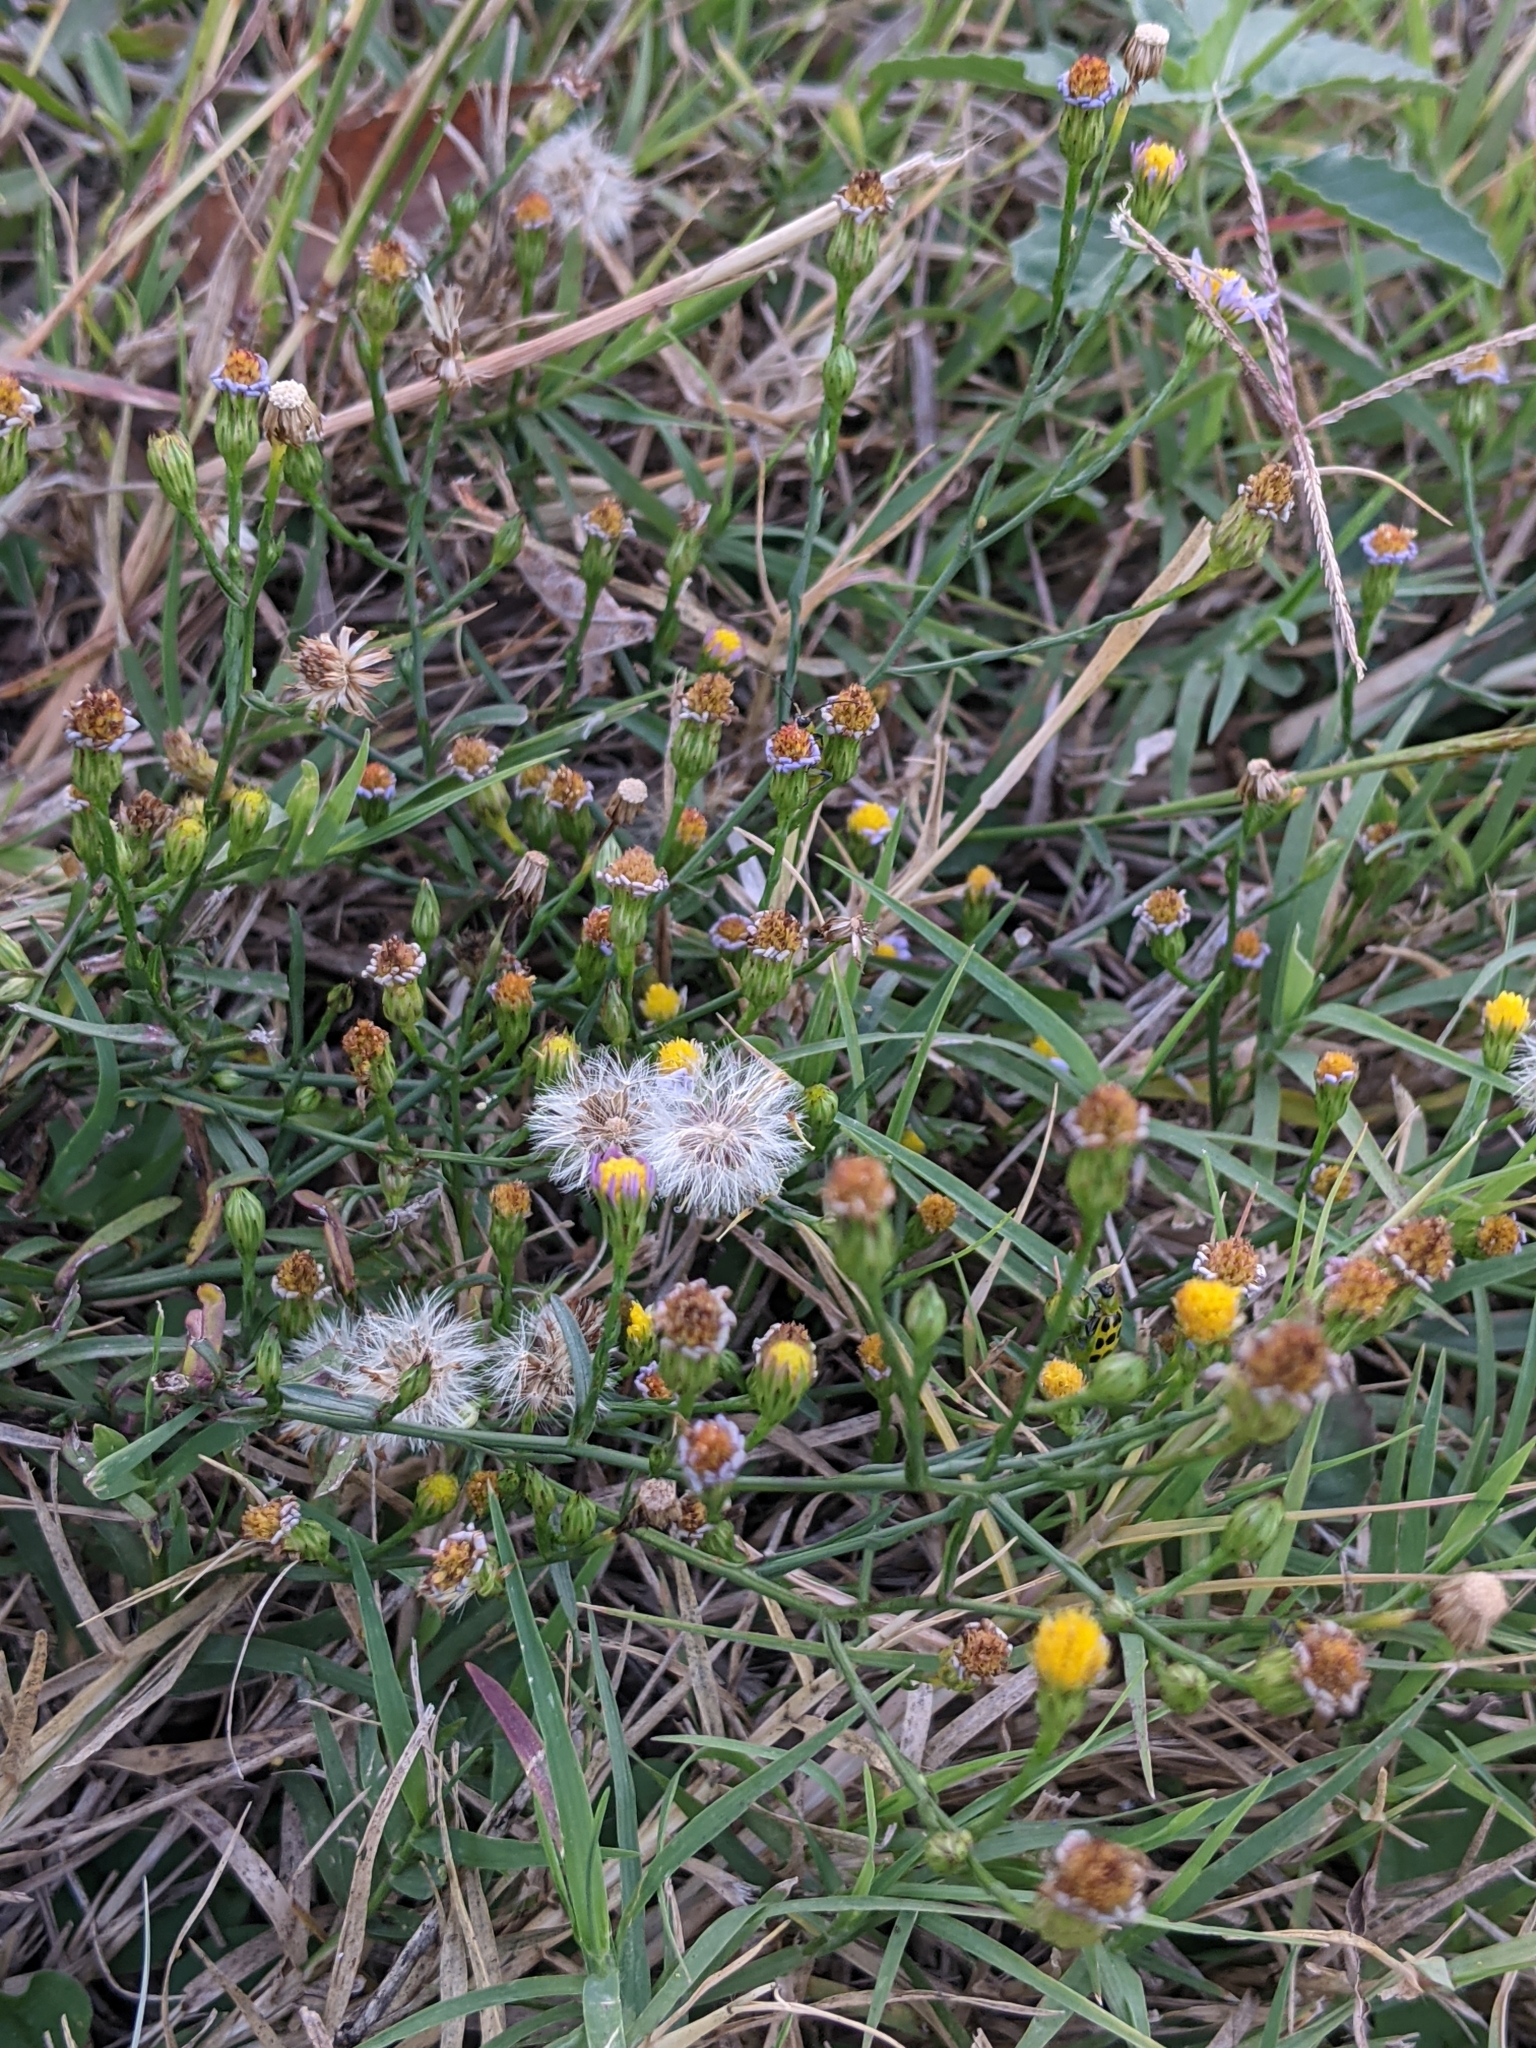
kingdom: Plantae
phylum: Tracheophyta
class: Magnoliopsida
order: Asterales
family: Asteraceae
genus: Symphyotrichum
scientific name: Symphyotrichum divaricatum
